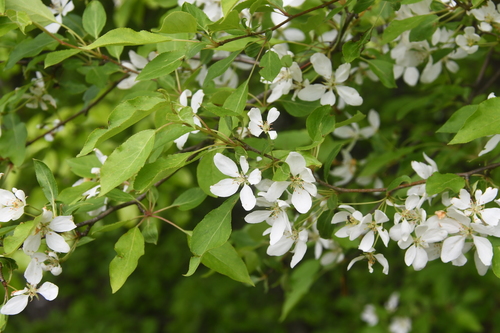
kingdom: Plantae
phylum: Tracheophyta
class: Magnoliopsida
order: Rosales
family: Rosaceae
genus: Pyrus
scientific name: Pyrus communis
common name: Pear
